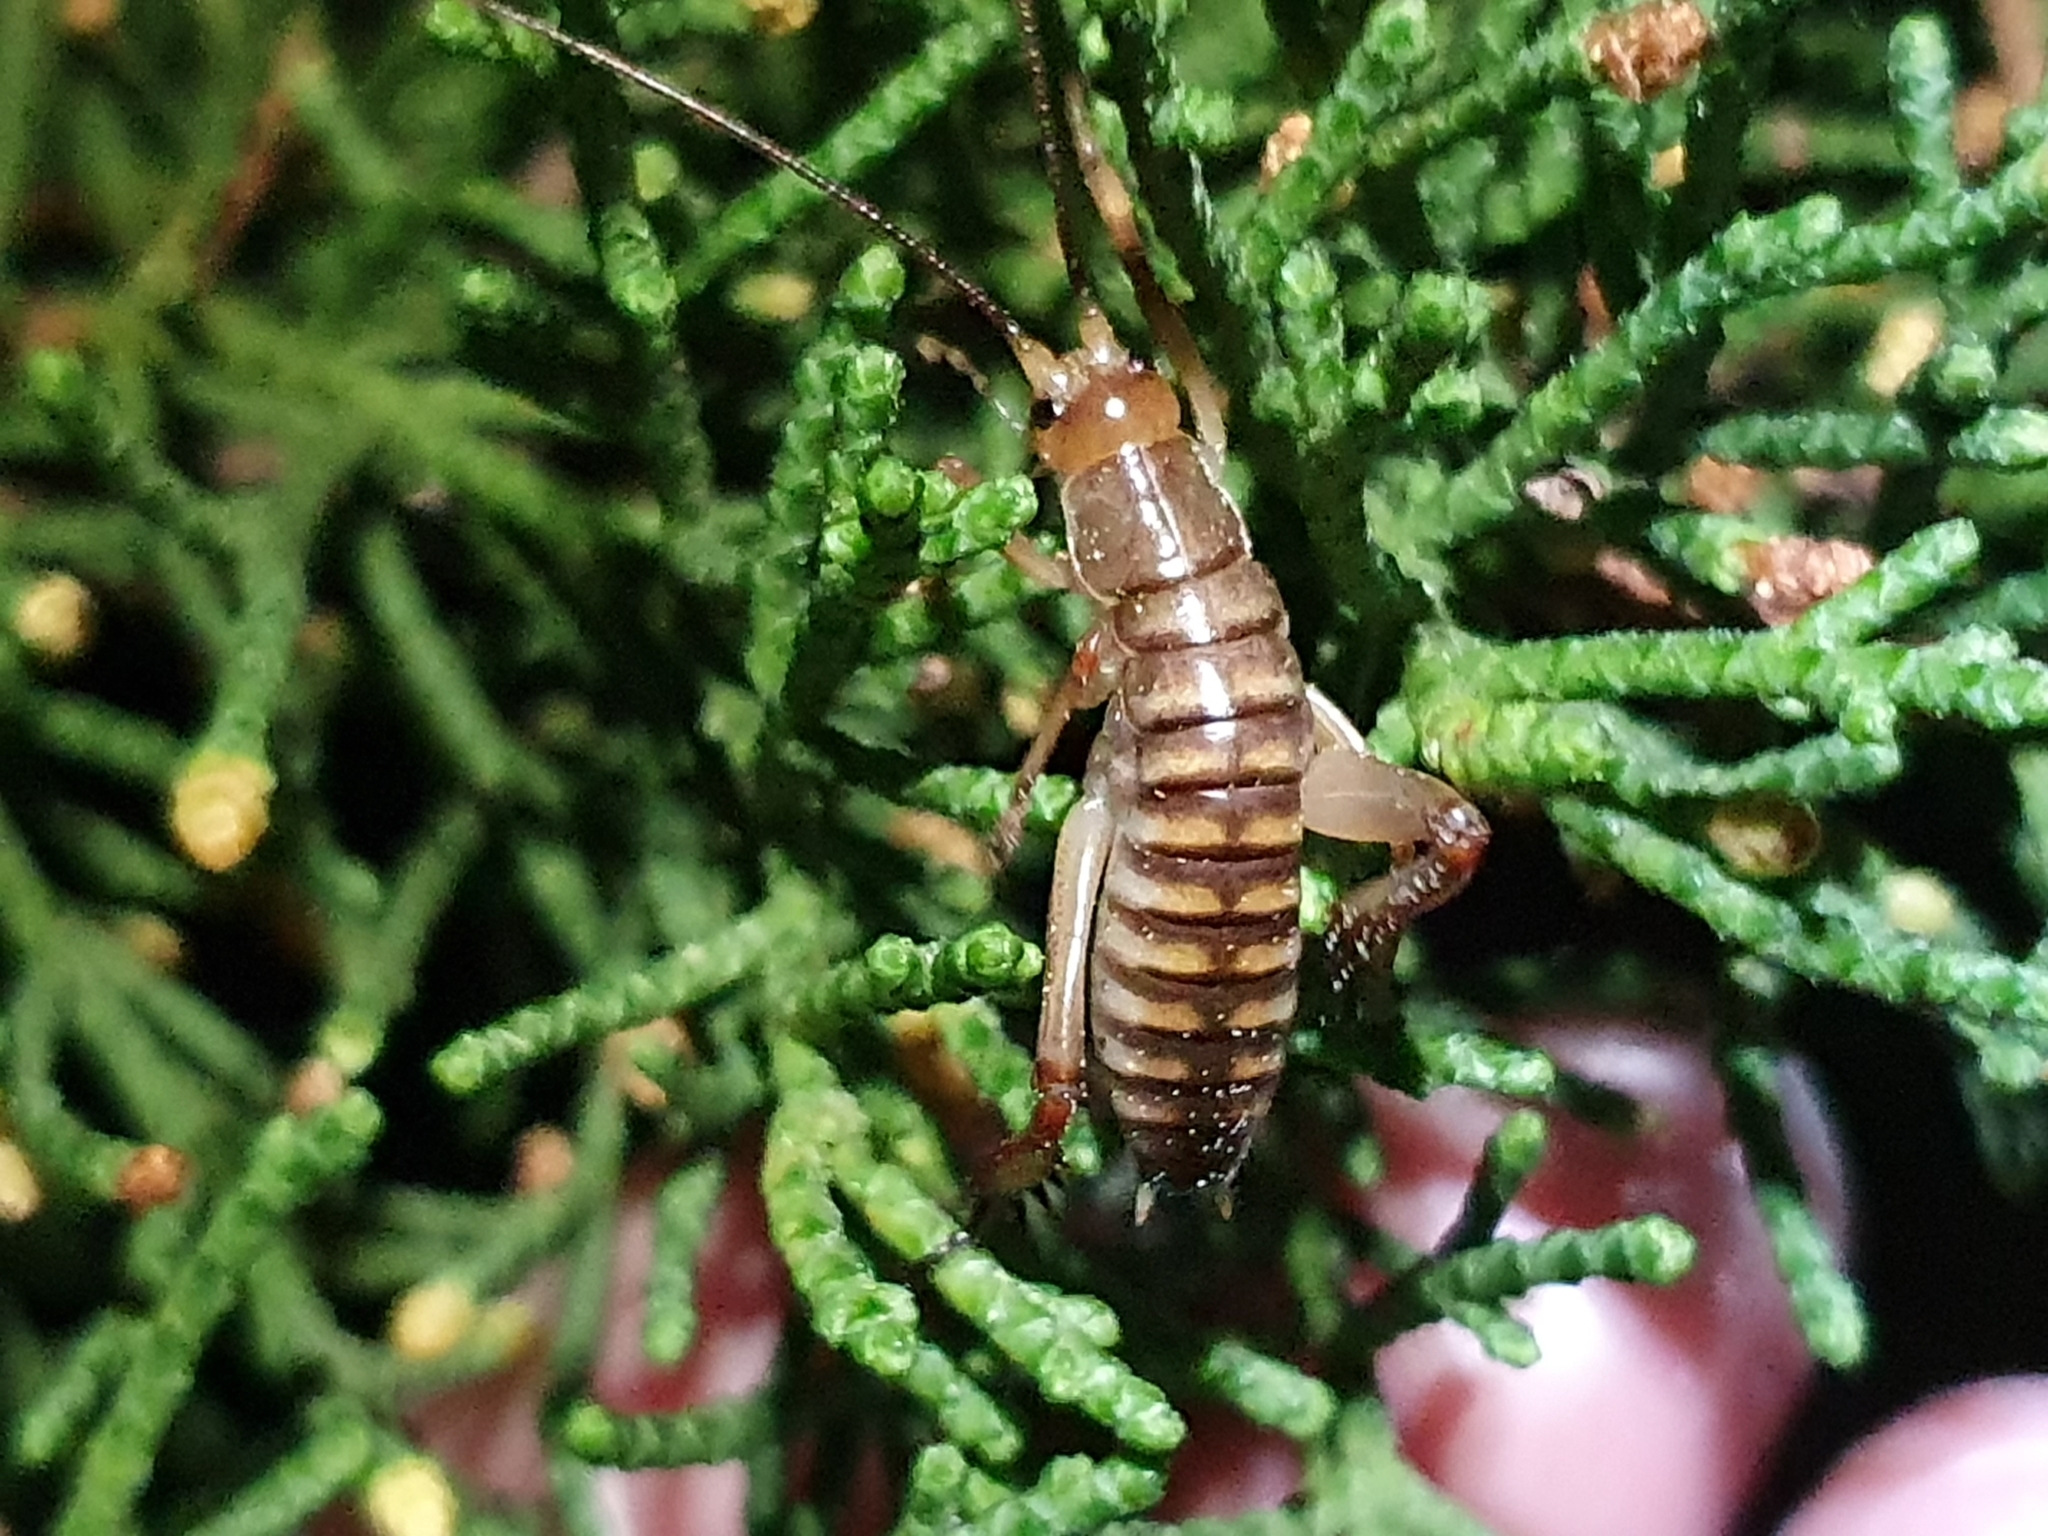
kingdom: Animalia
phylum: Arthropoda
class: Insecta
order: Orthoptera
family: Anostostomatidae
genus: Hemideina
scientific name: Hemideina crassidens
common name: Wellington tree weta
